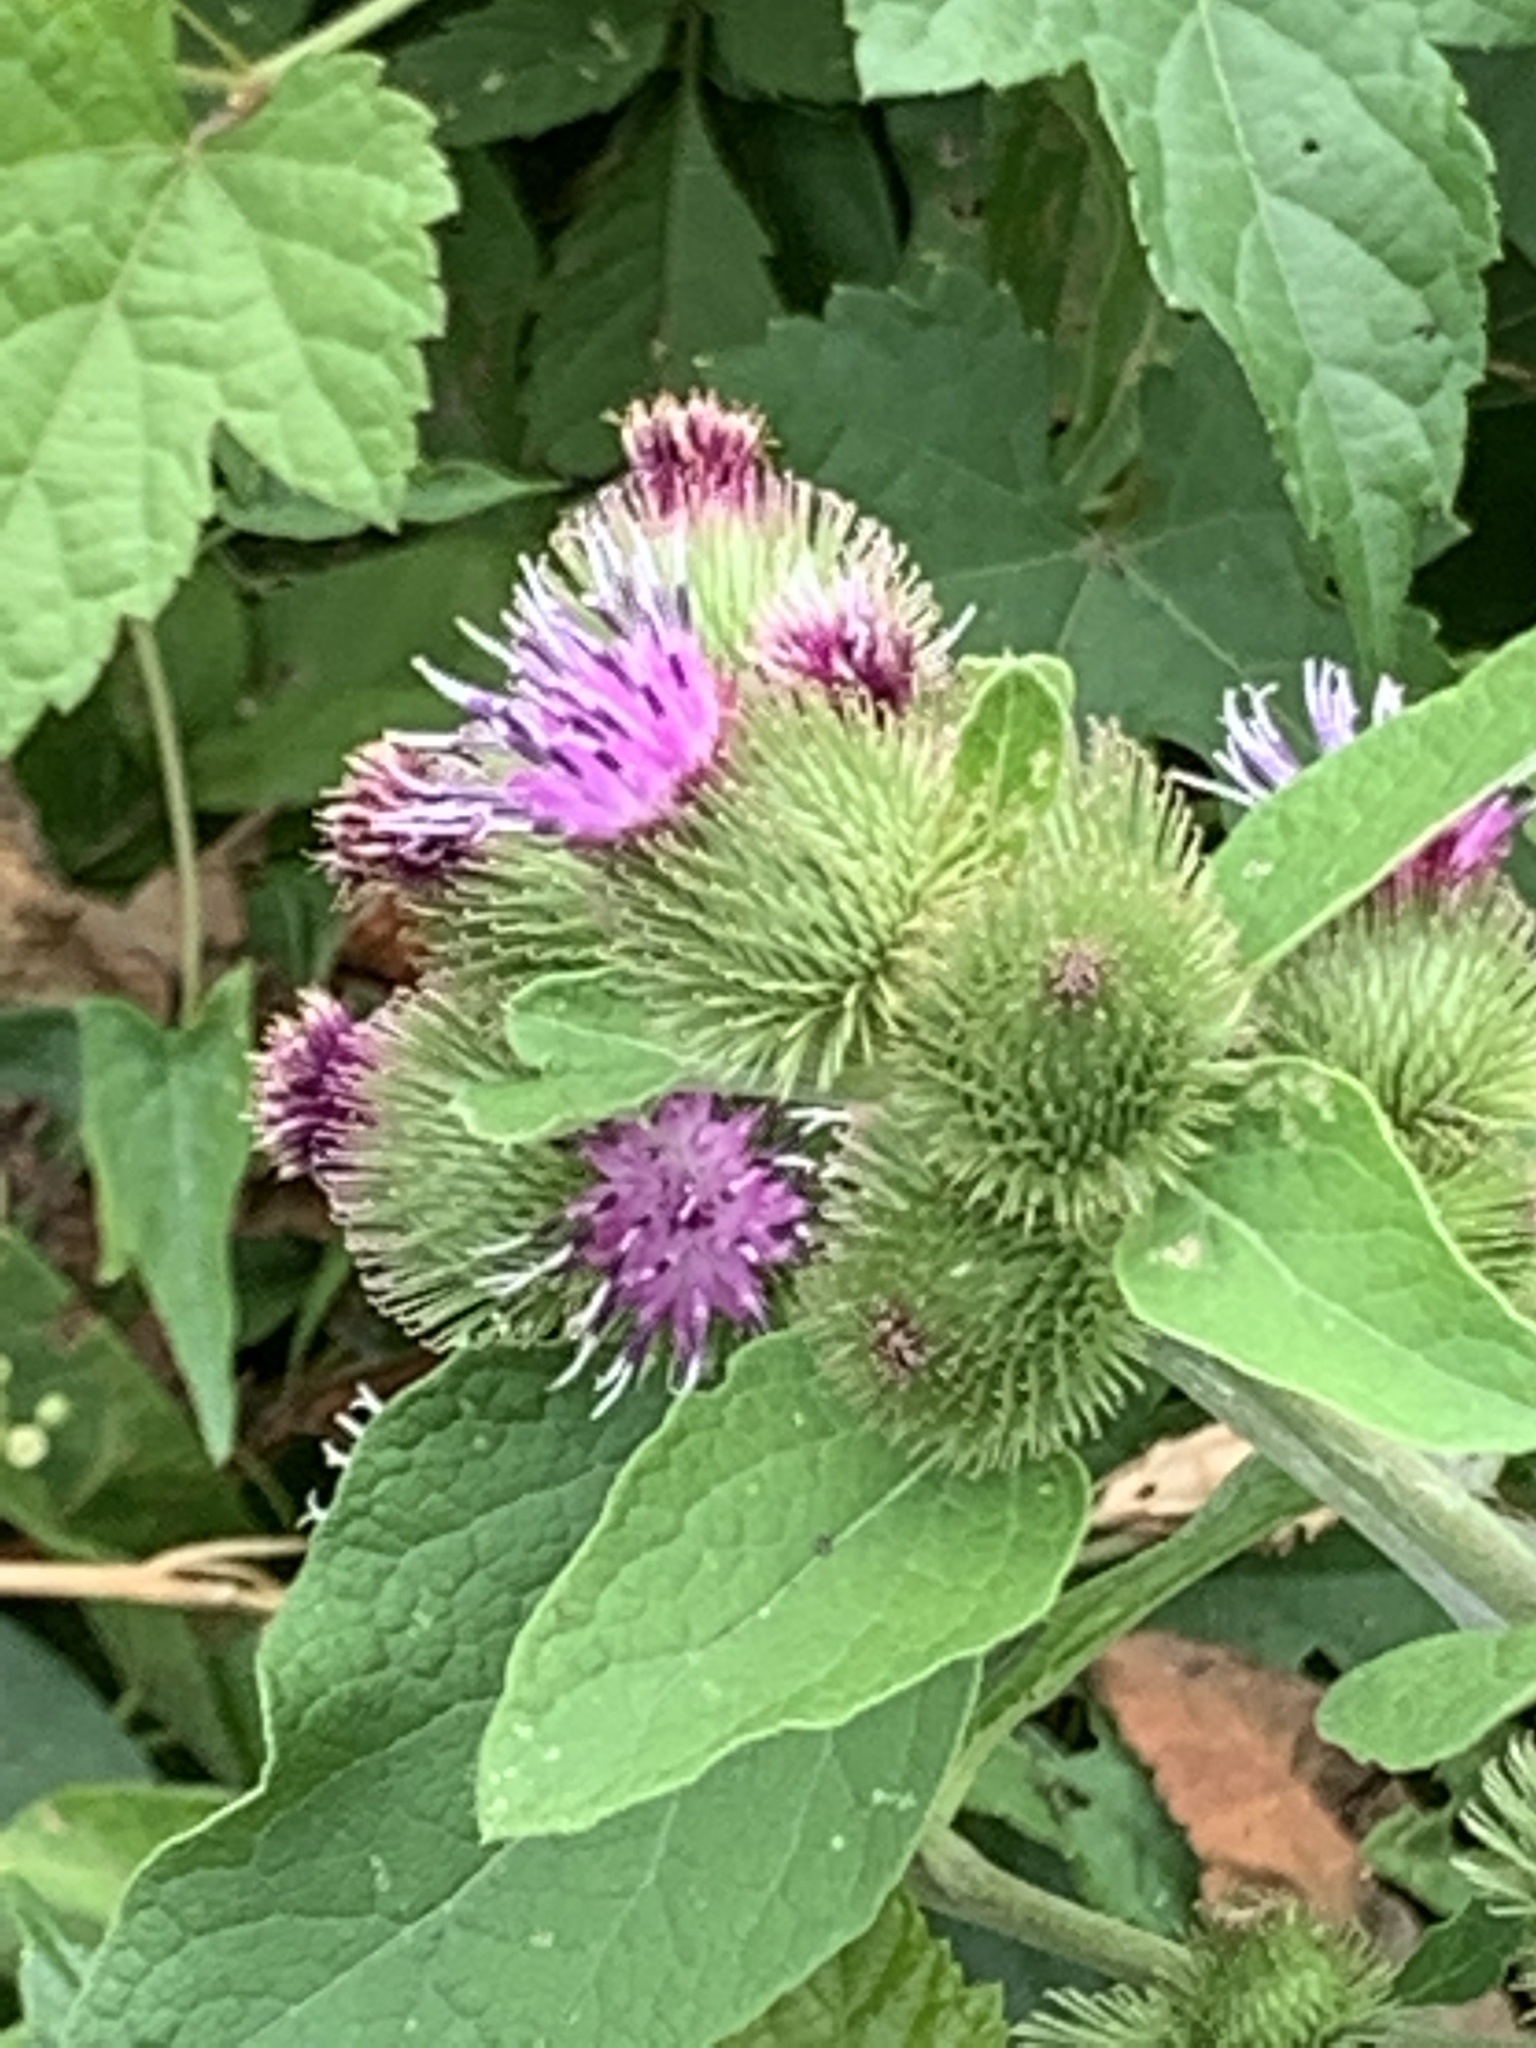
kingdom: Plantae
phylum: Tracheophyta
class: Magnoliopsida
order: Asterales
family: Asteraceae
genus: Arctium
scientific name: Arctium minus
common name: Lesser burdock
